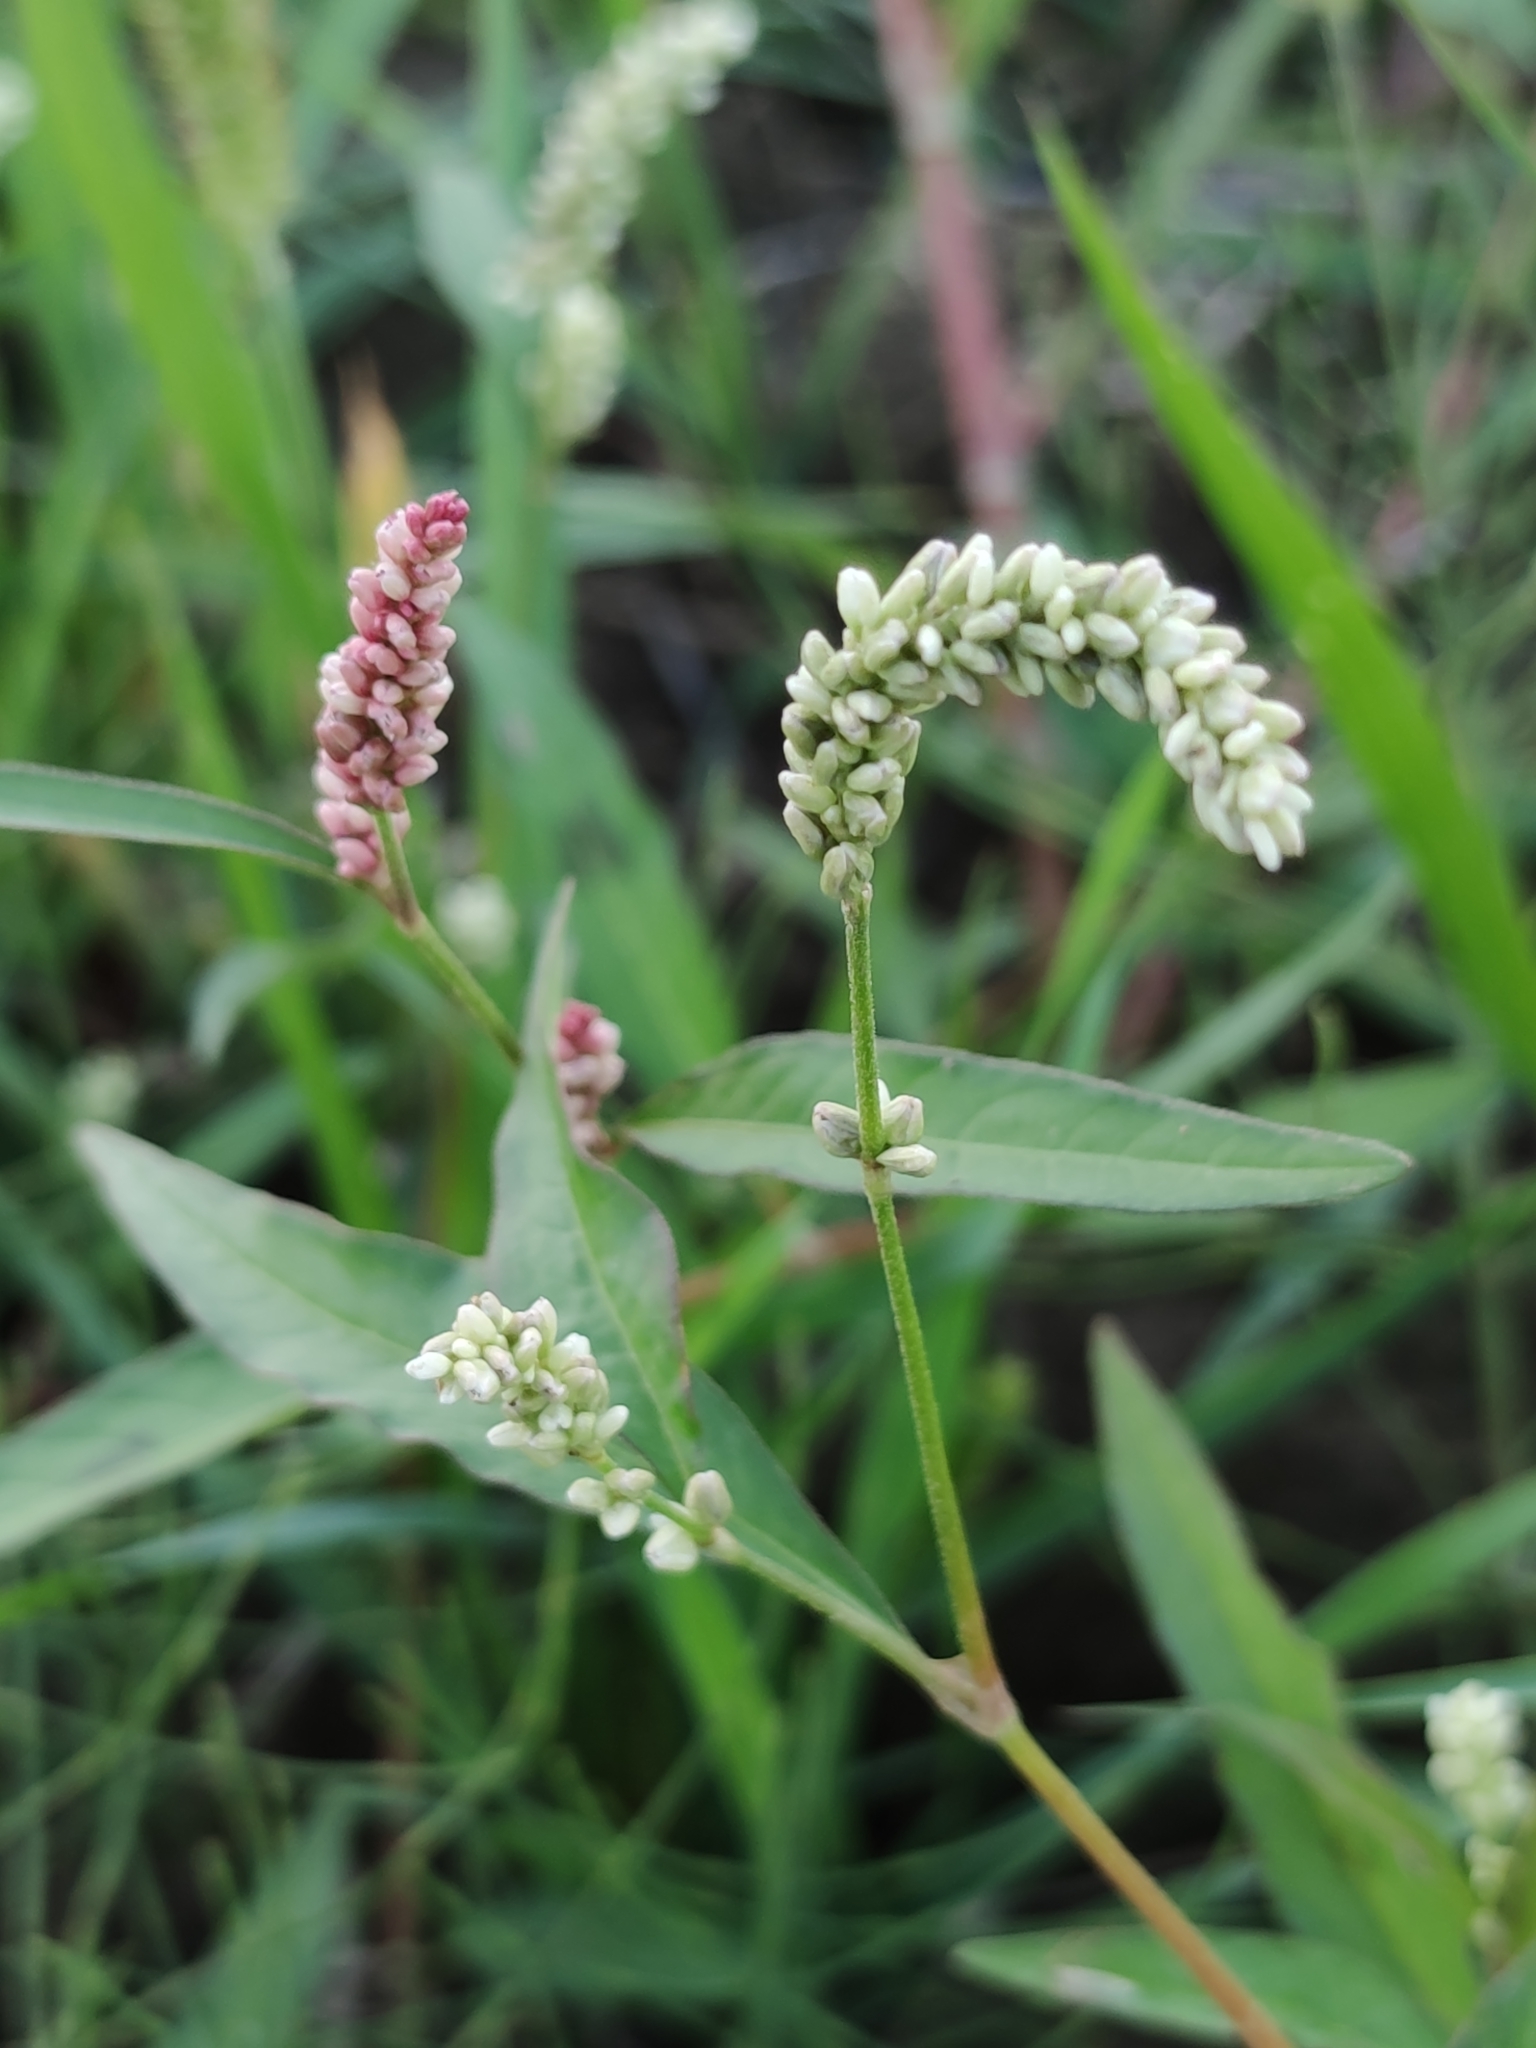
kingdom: Plantae
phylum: Tracheophyta
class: Magnoliopsida
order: Caryophyllales
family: Polygonaceae
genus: Persicaria
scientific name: Persicaria lapathifolia
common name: Curlytop knotweed
